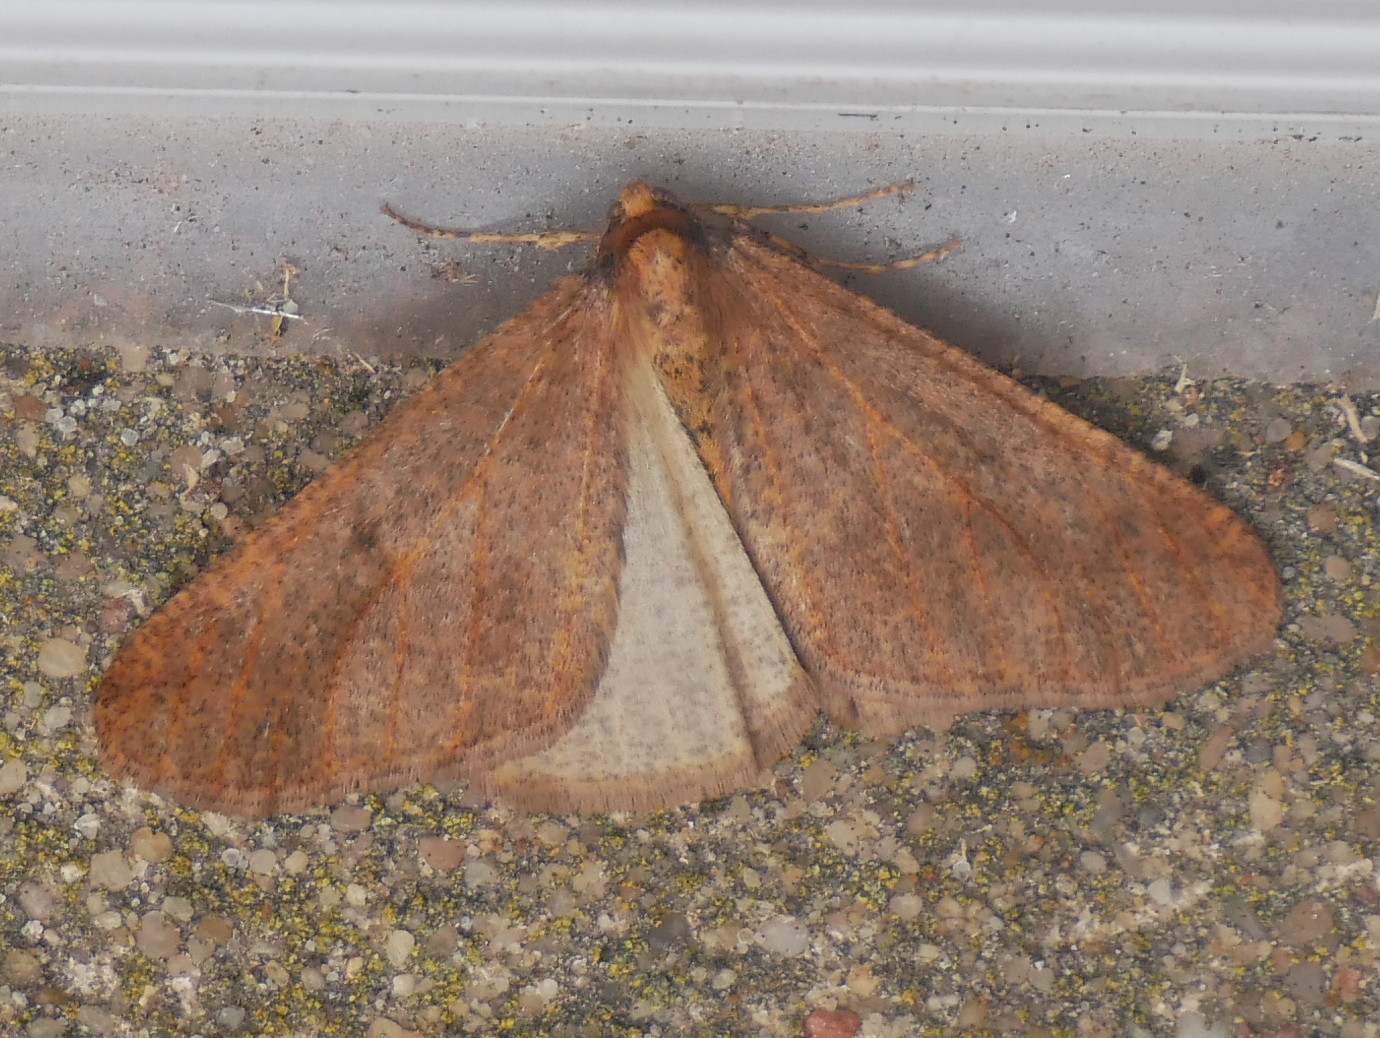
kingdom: Animalia
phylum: Arthropoda
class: Insecta
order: Lepidoptera
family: Geometridae
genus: Erannis
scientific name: Erannis defoliaria
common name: Mottled umber
